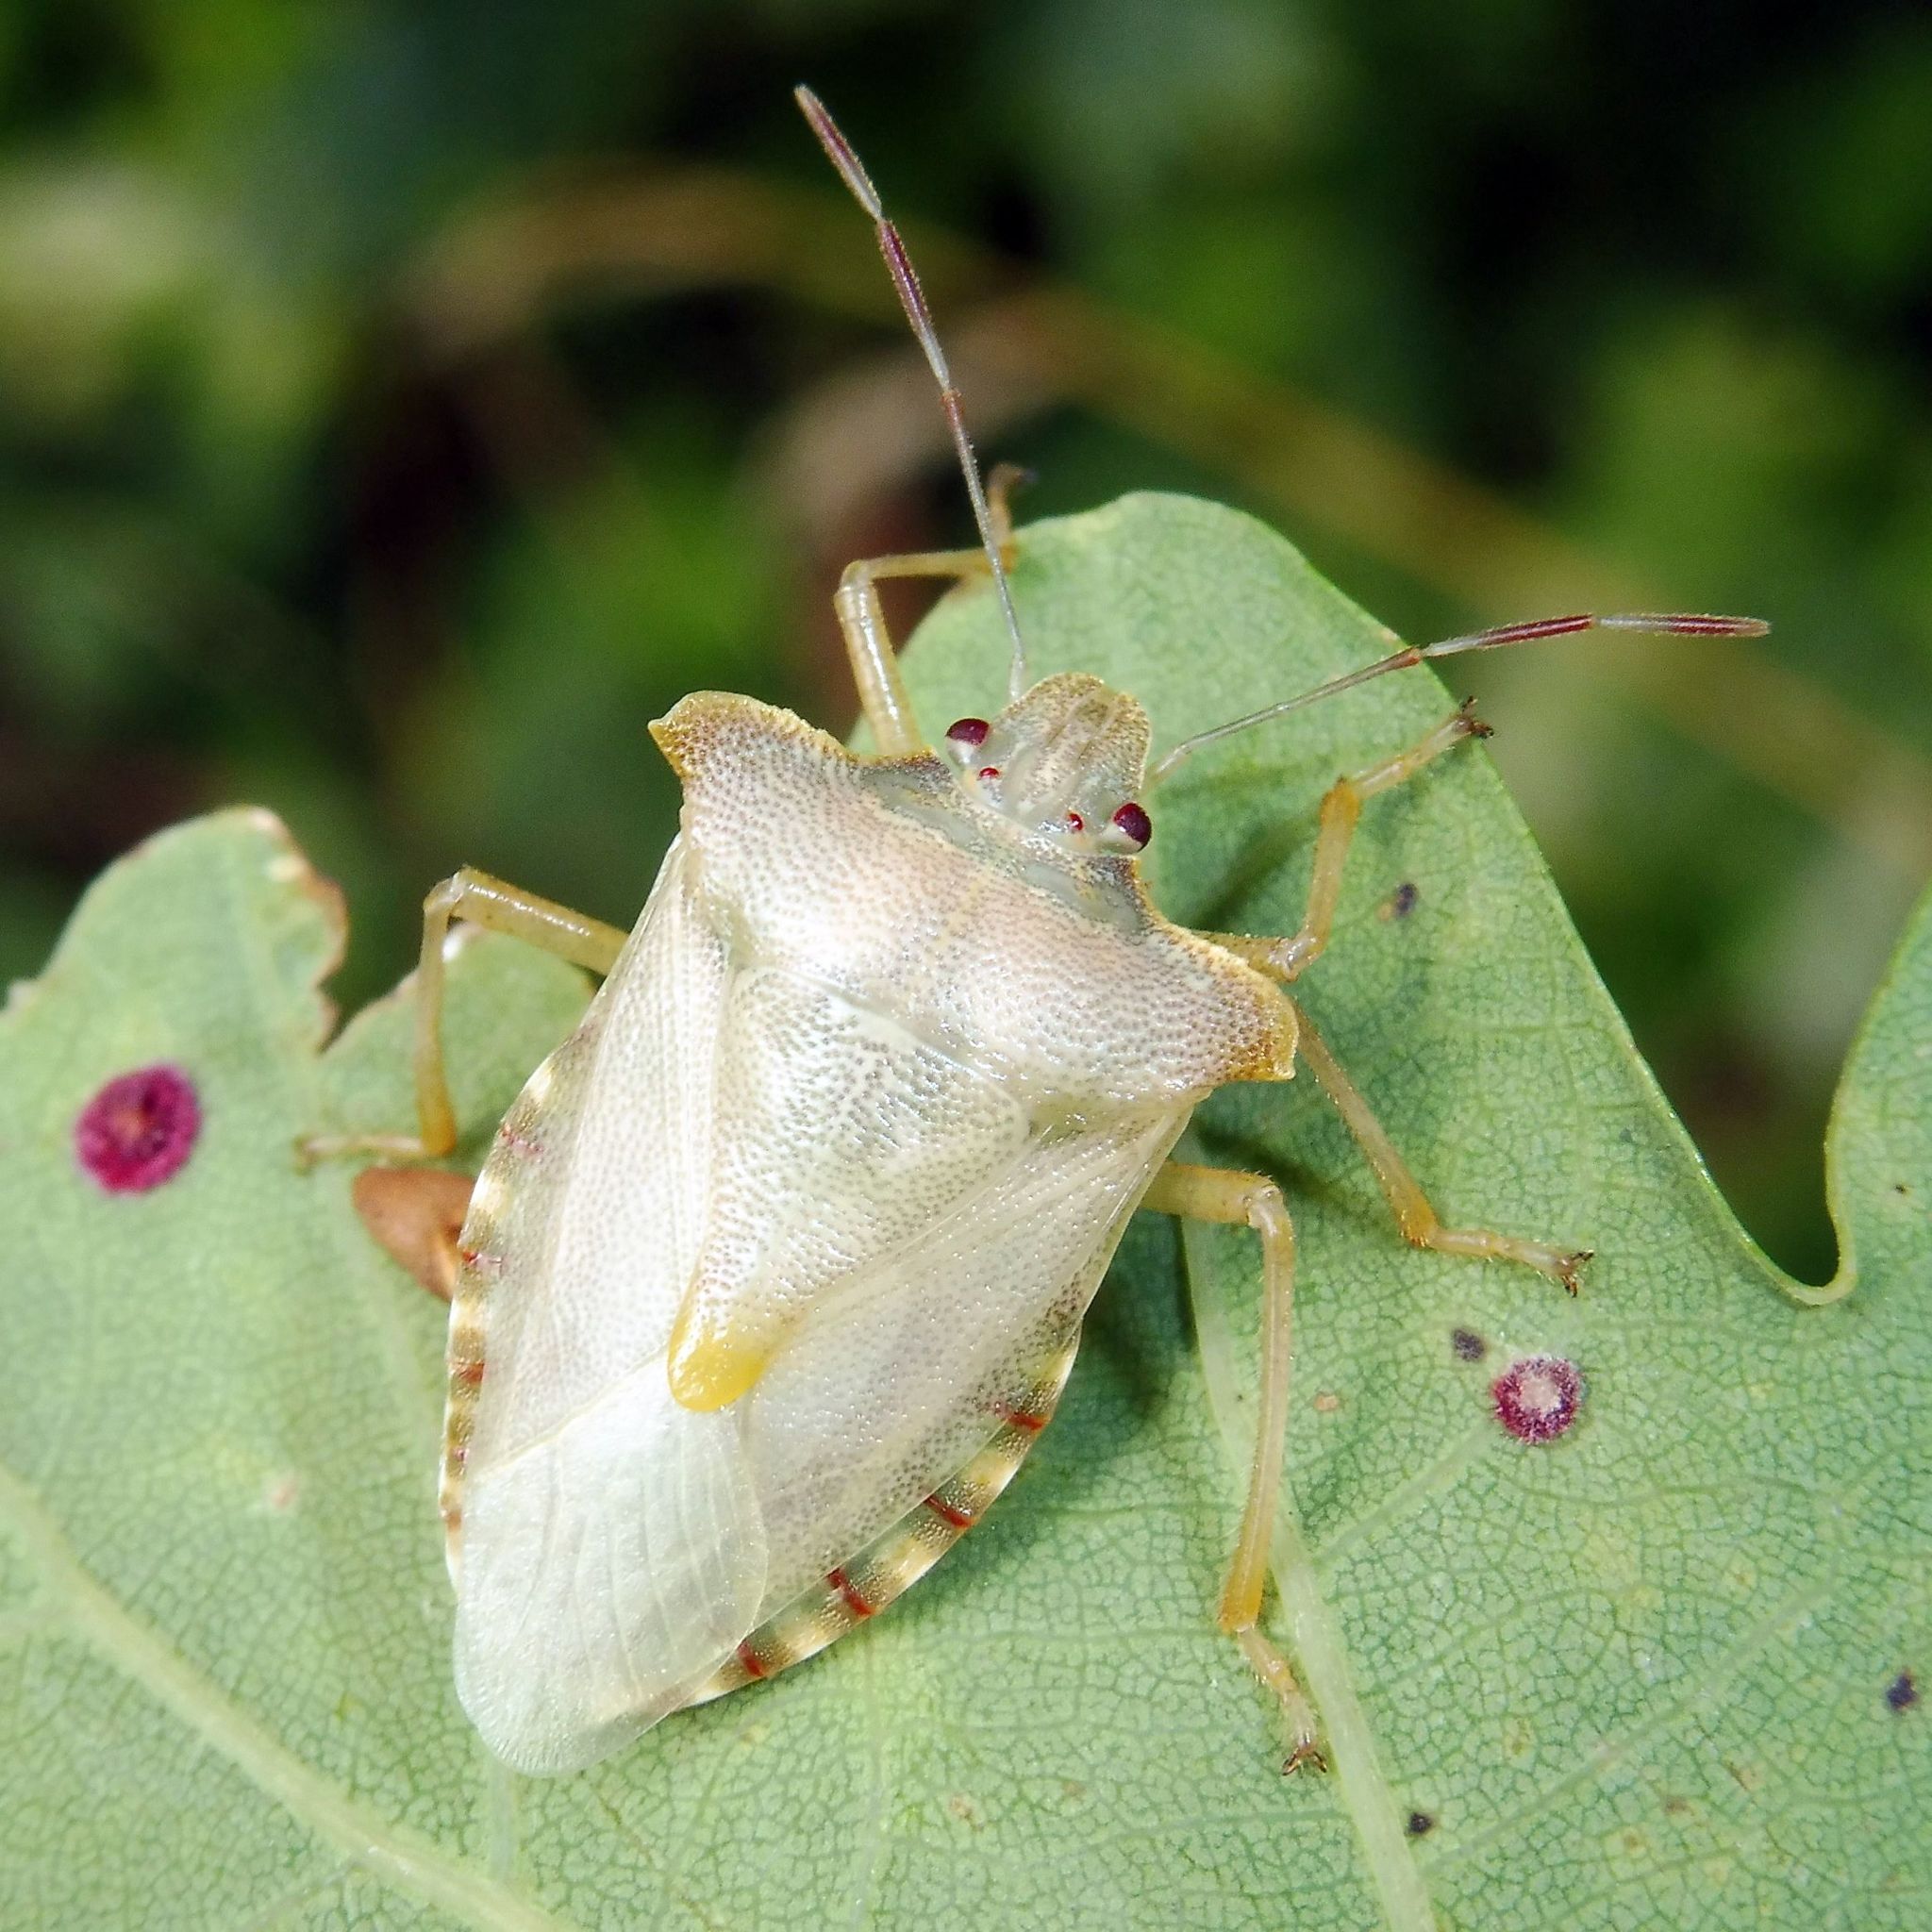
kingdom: Animalia
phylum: Arthropoda
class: Insecta
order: Hemiptera
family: Pentatomidae
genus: Pentatoma
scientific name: Pentatoma rufipes
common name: Forest bug
